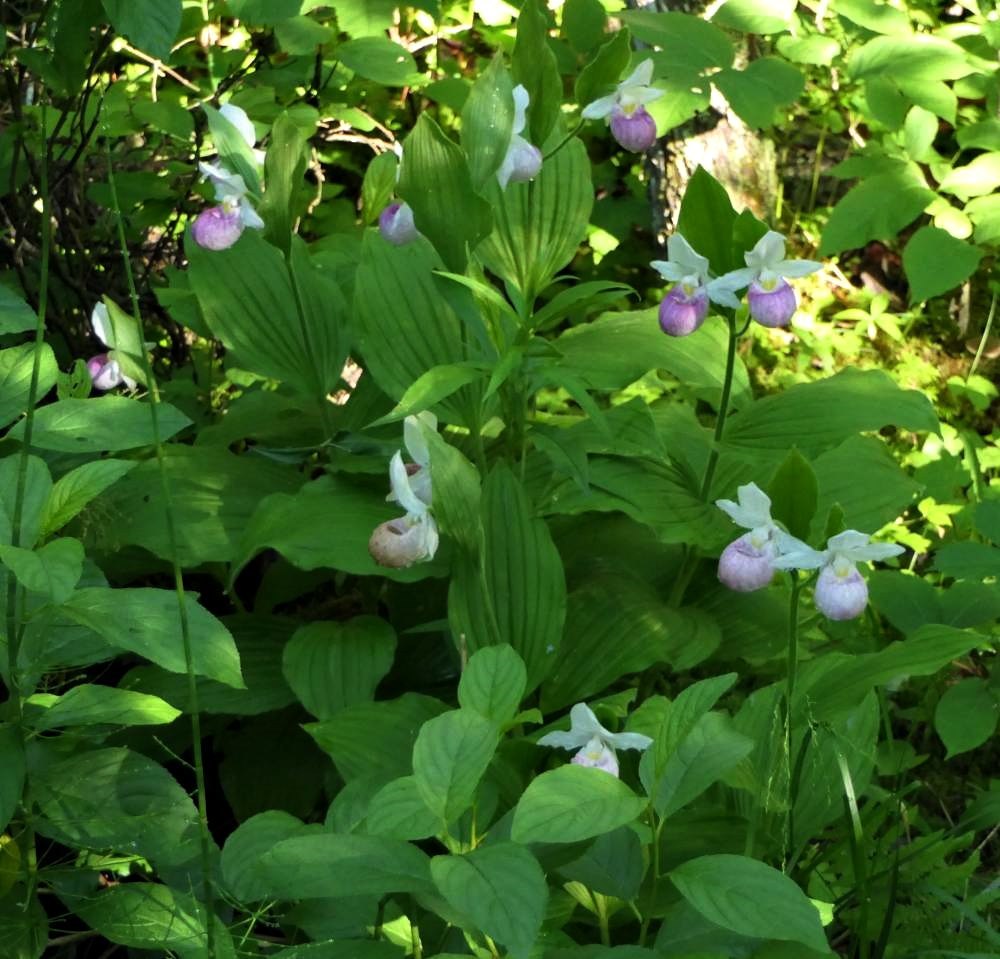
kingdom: Plantae
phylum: Tracheophyta
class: Liliopsida
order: Asparagales
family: Orchidaceae
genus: Cypripedium
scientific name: Cypripedium reginae
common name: Queen lady's-slipper
